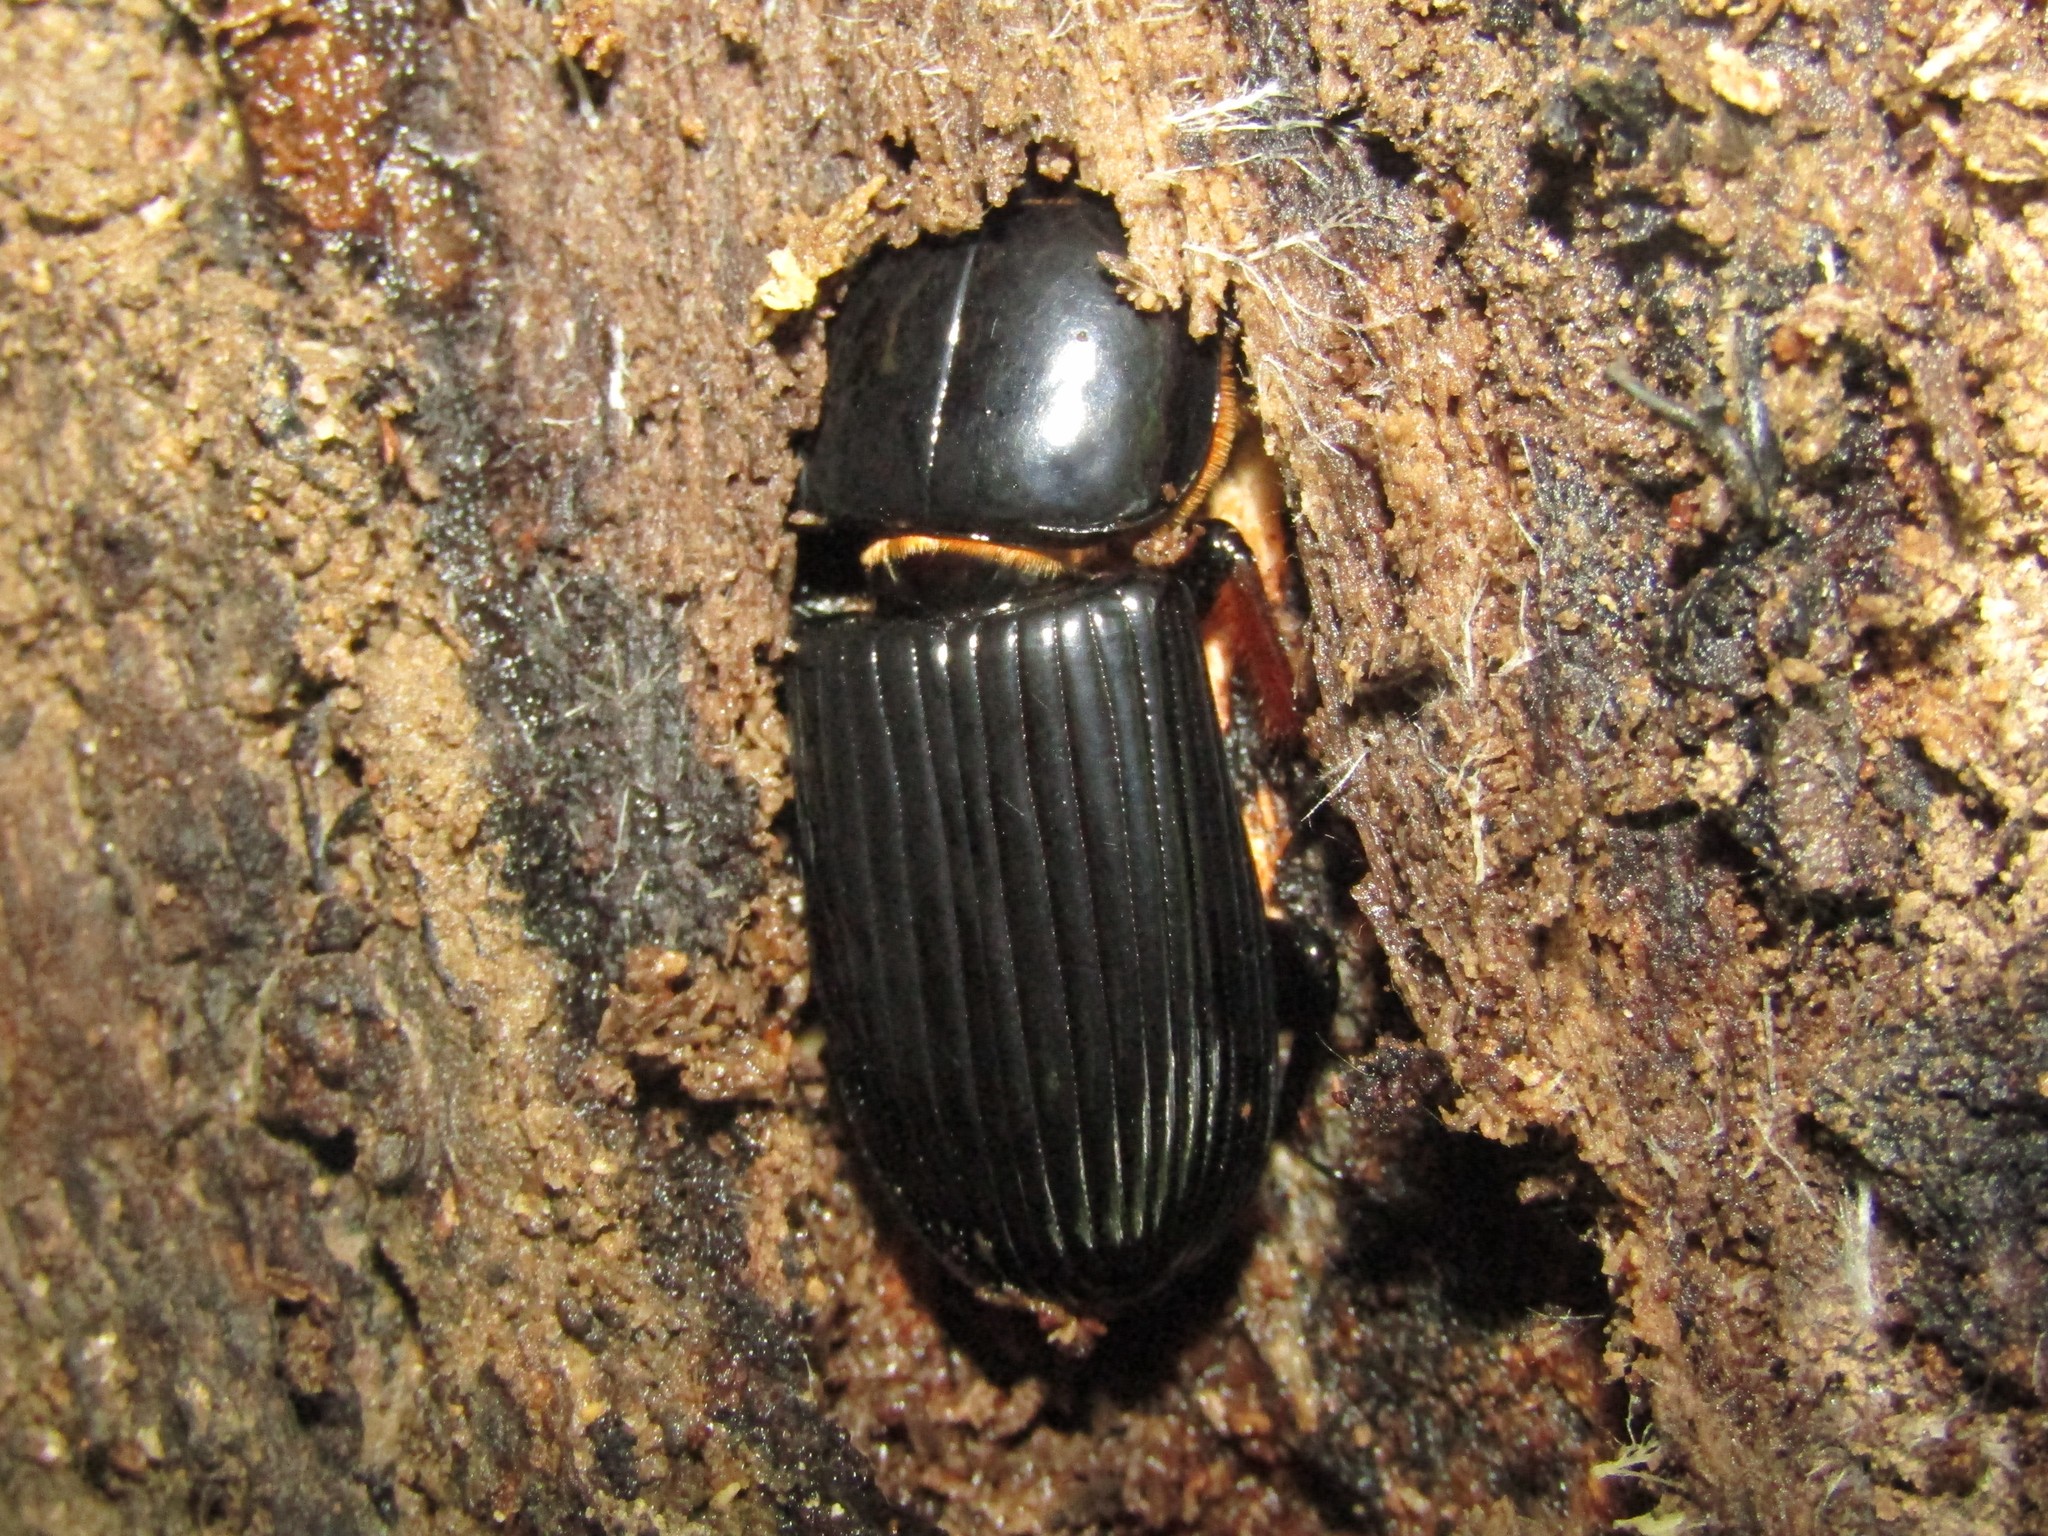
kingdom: Animalia
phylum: Arthropoda
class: Insecta
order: Coleoptera
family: Passalidae
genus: Odontotaenius
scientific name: Odontotaenius disjunctus
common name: Patent leather beetle
